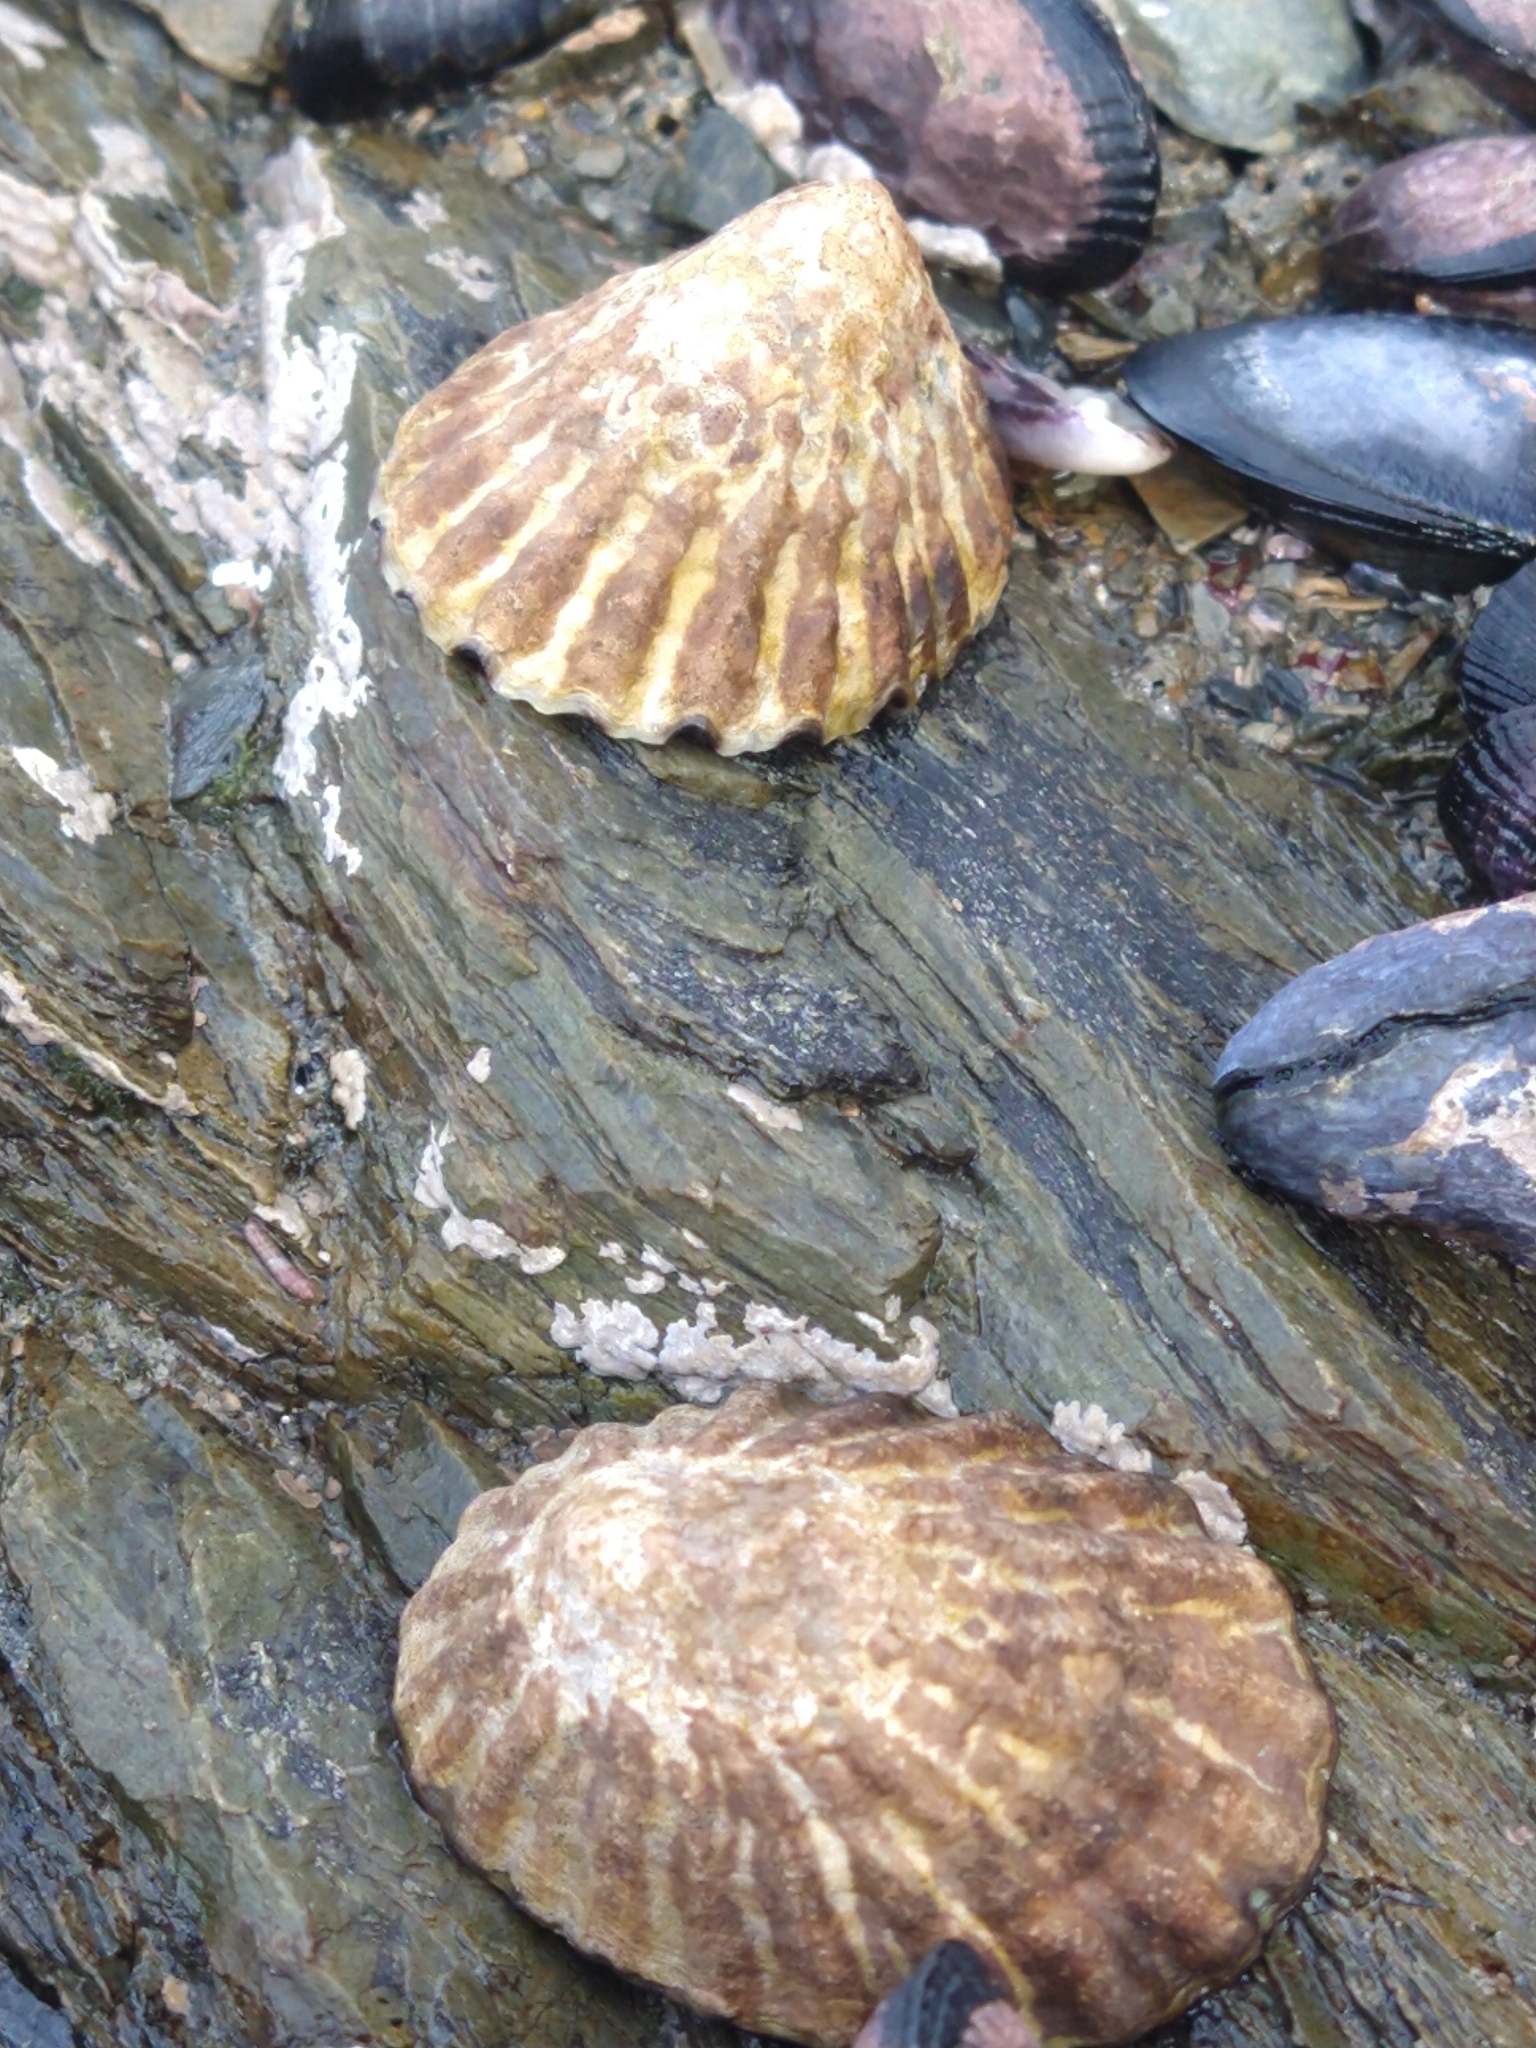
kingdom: Animalia
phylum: Mollusca
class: Gastropoda
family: Nacellidae
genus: Nacella
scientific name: Nacella magellanica
